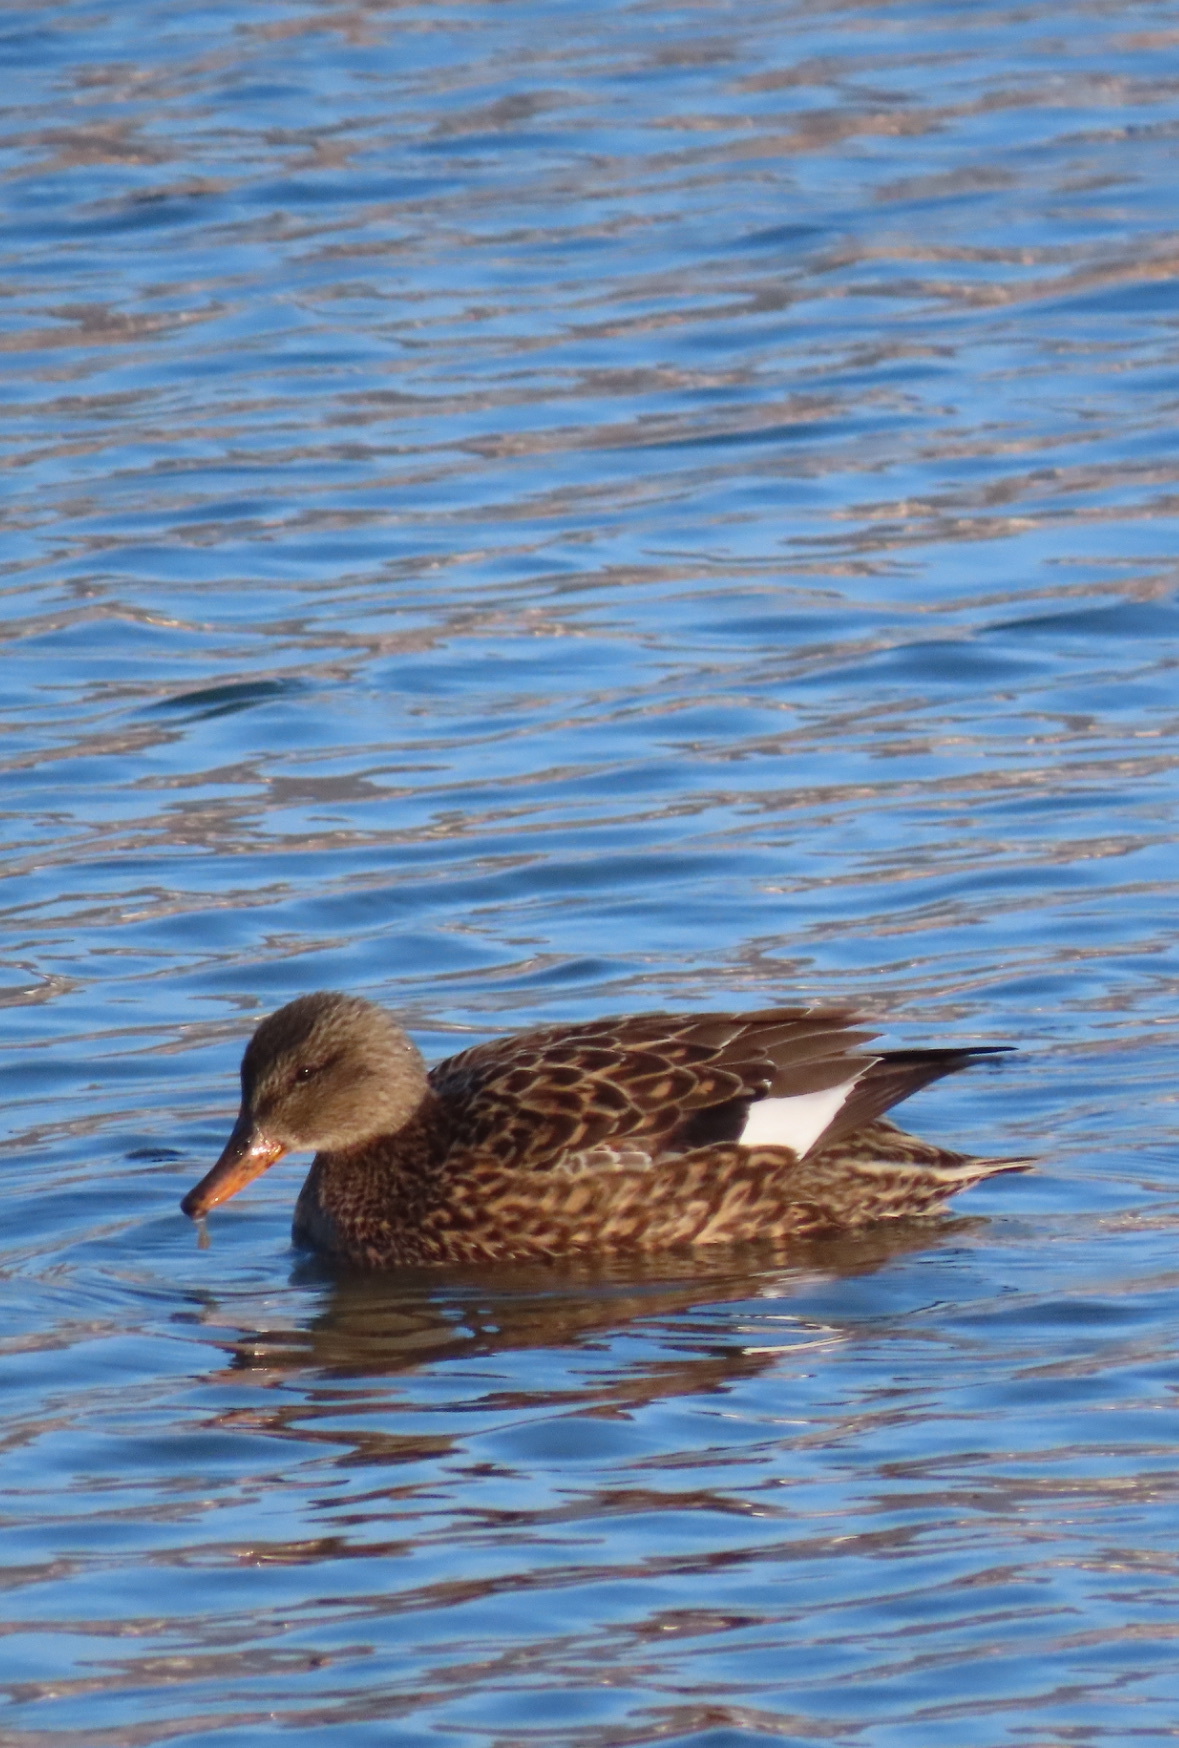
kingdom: Animalia
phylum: Chordata
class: Aves
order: Anseriformes
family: Anatidae
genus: Mareca
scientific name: Mareca strepera
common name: Gadwall
